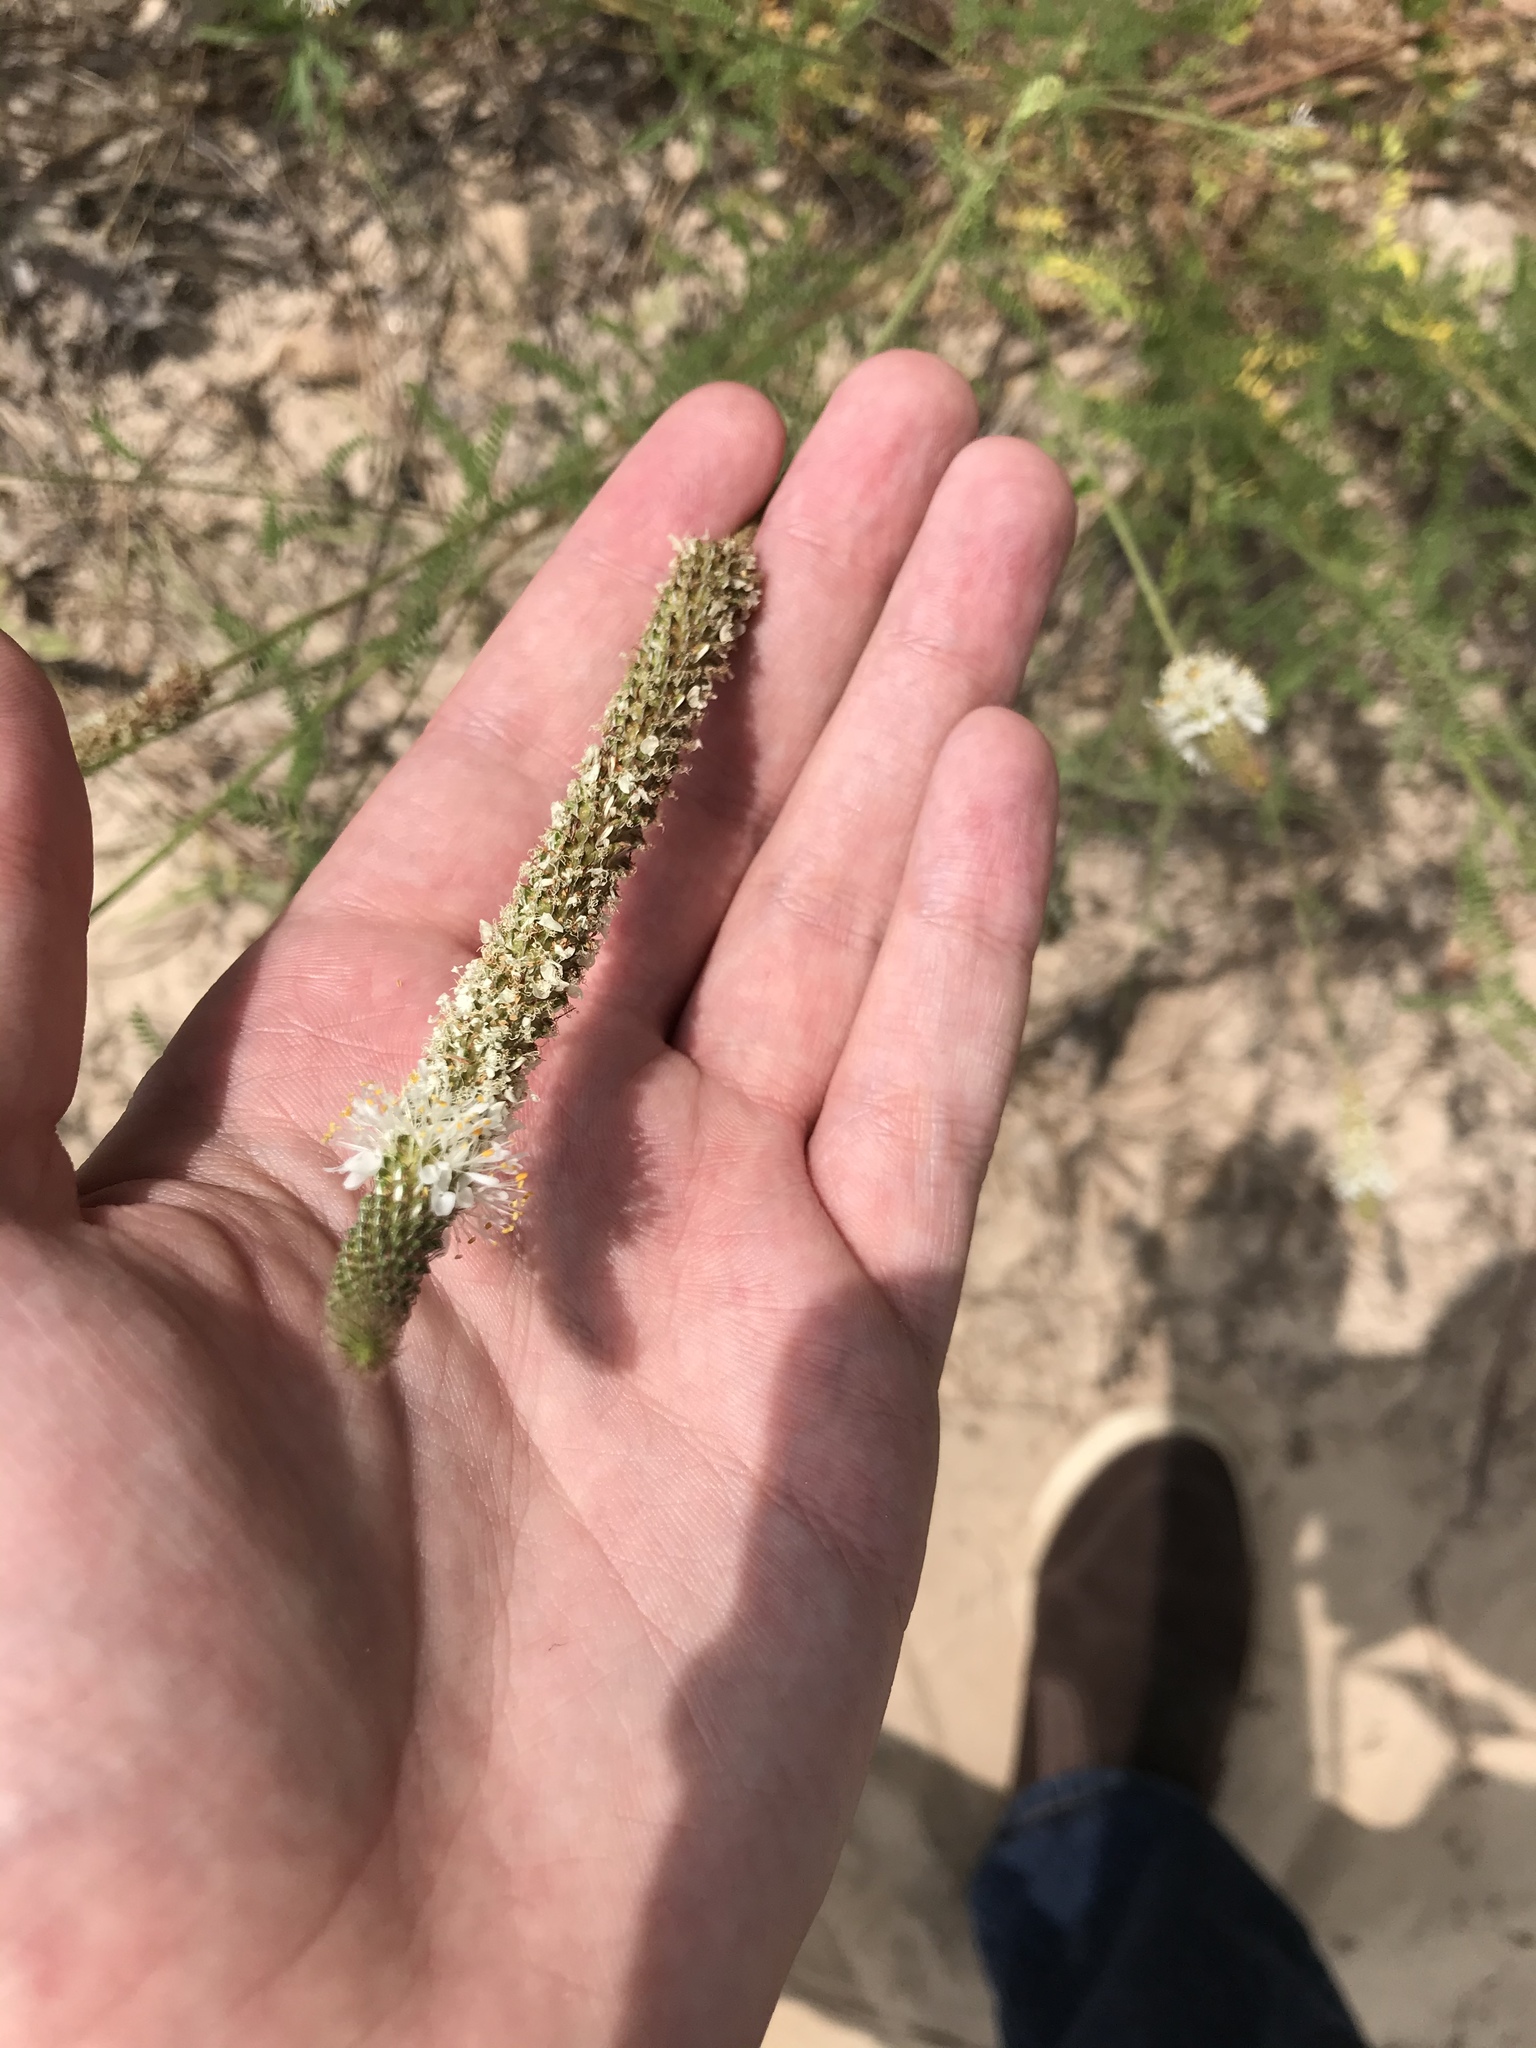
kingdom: Plantae
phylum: Tracheophyta
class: Magnoliopsida
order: Fabales
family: Fabaceae
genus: Dalea
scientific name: Dalea drummondiana
